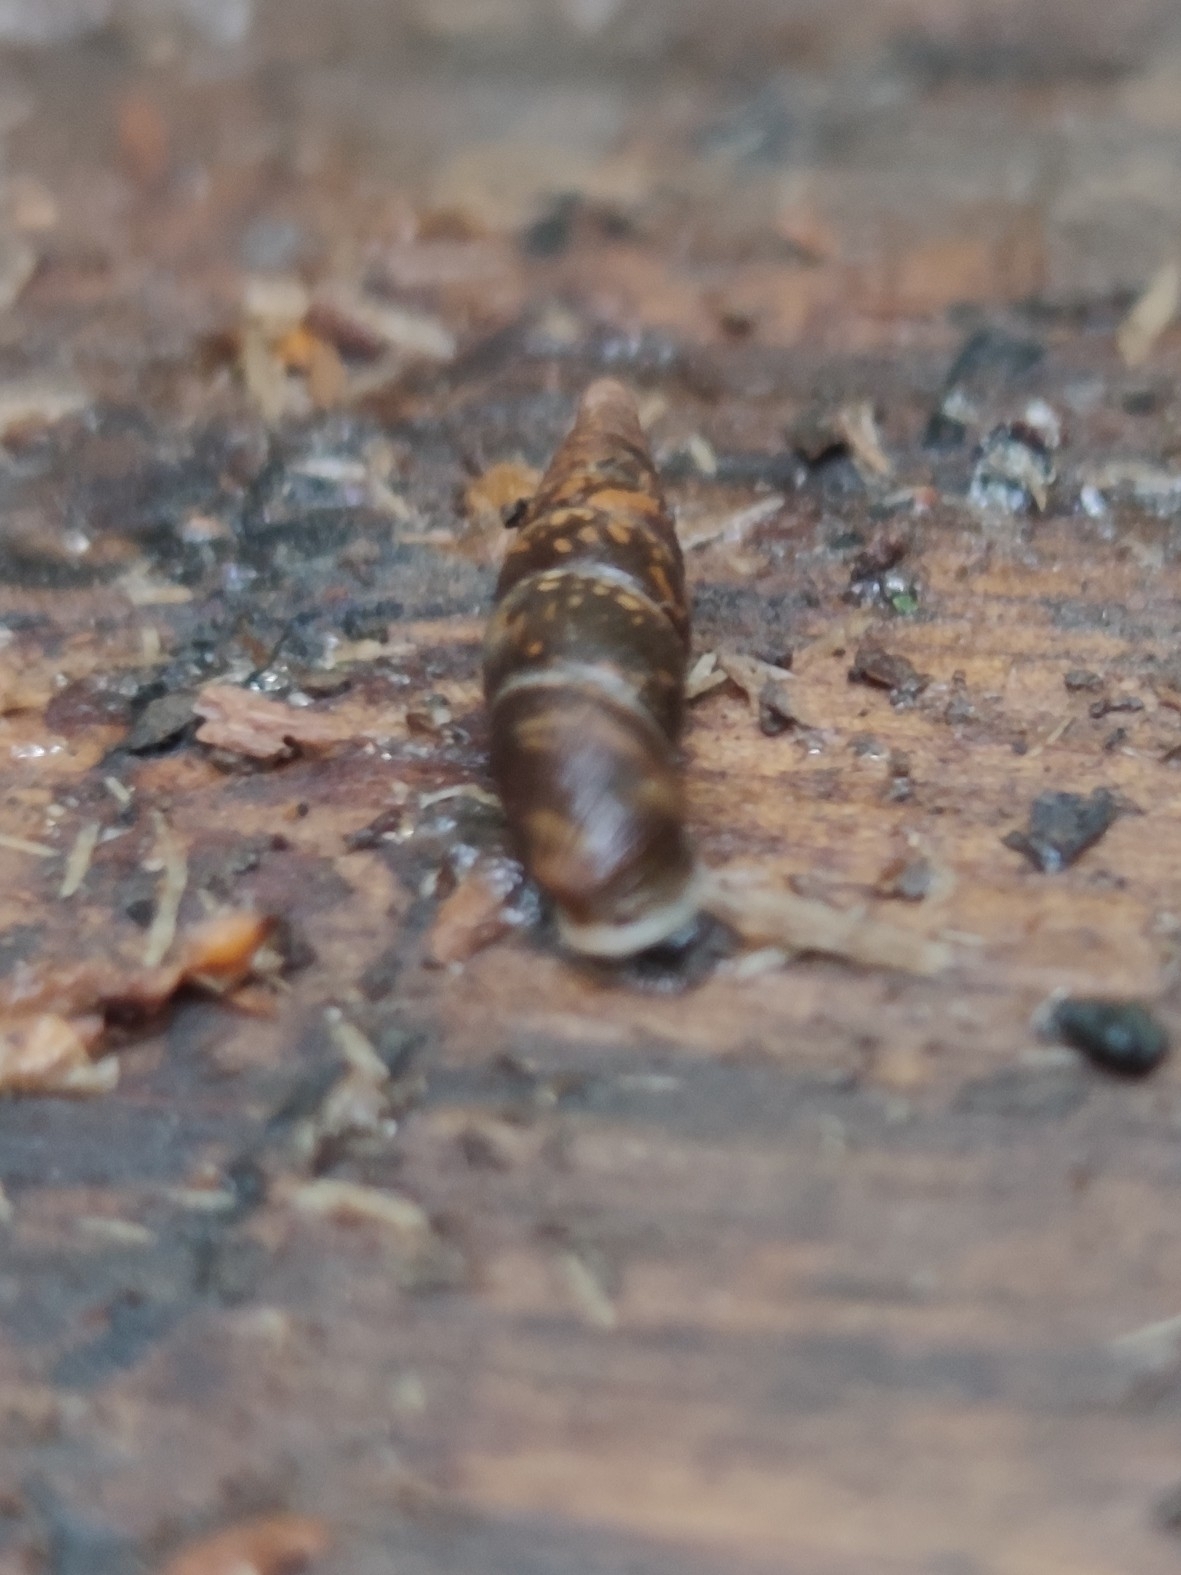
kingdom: Animalia
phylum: Mollusca
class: Gastropoda
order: Stylommatophora
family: Clausiliidae
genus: Cochlodina
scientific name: Cochlodina laminata
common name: Plaited door snail
